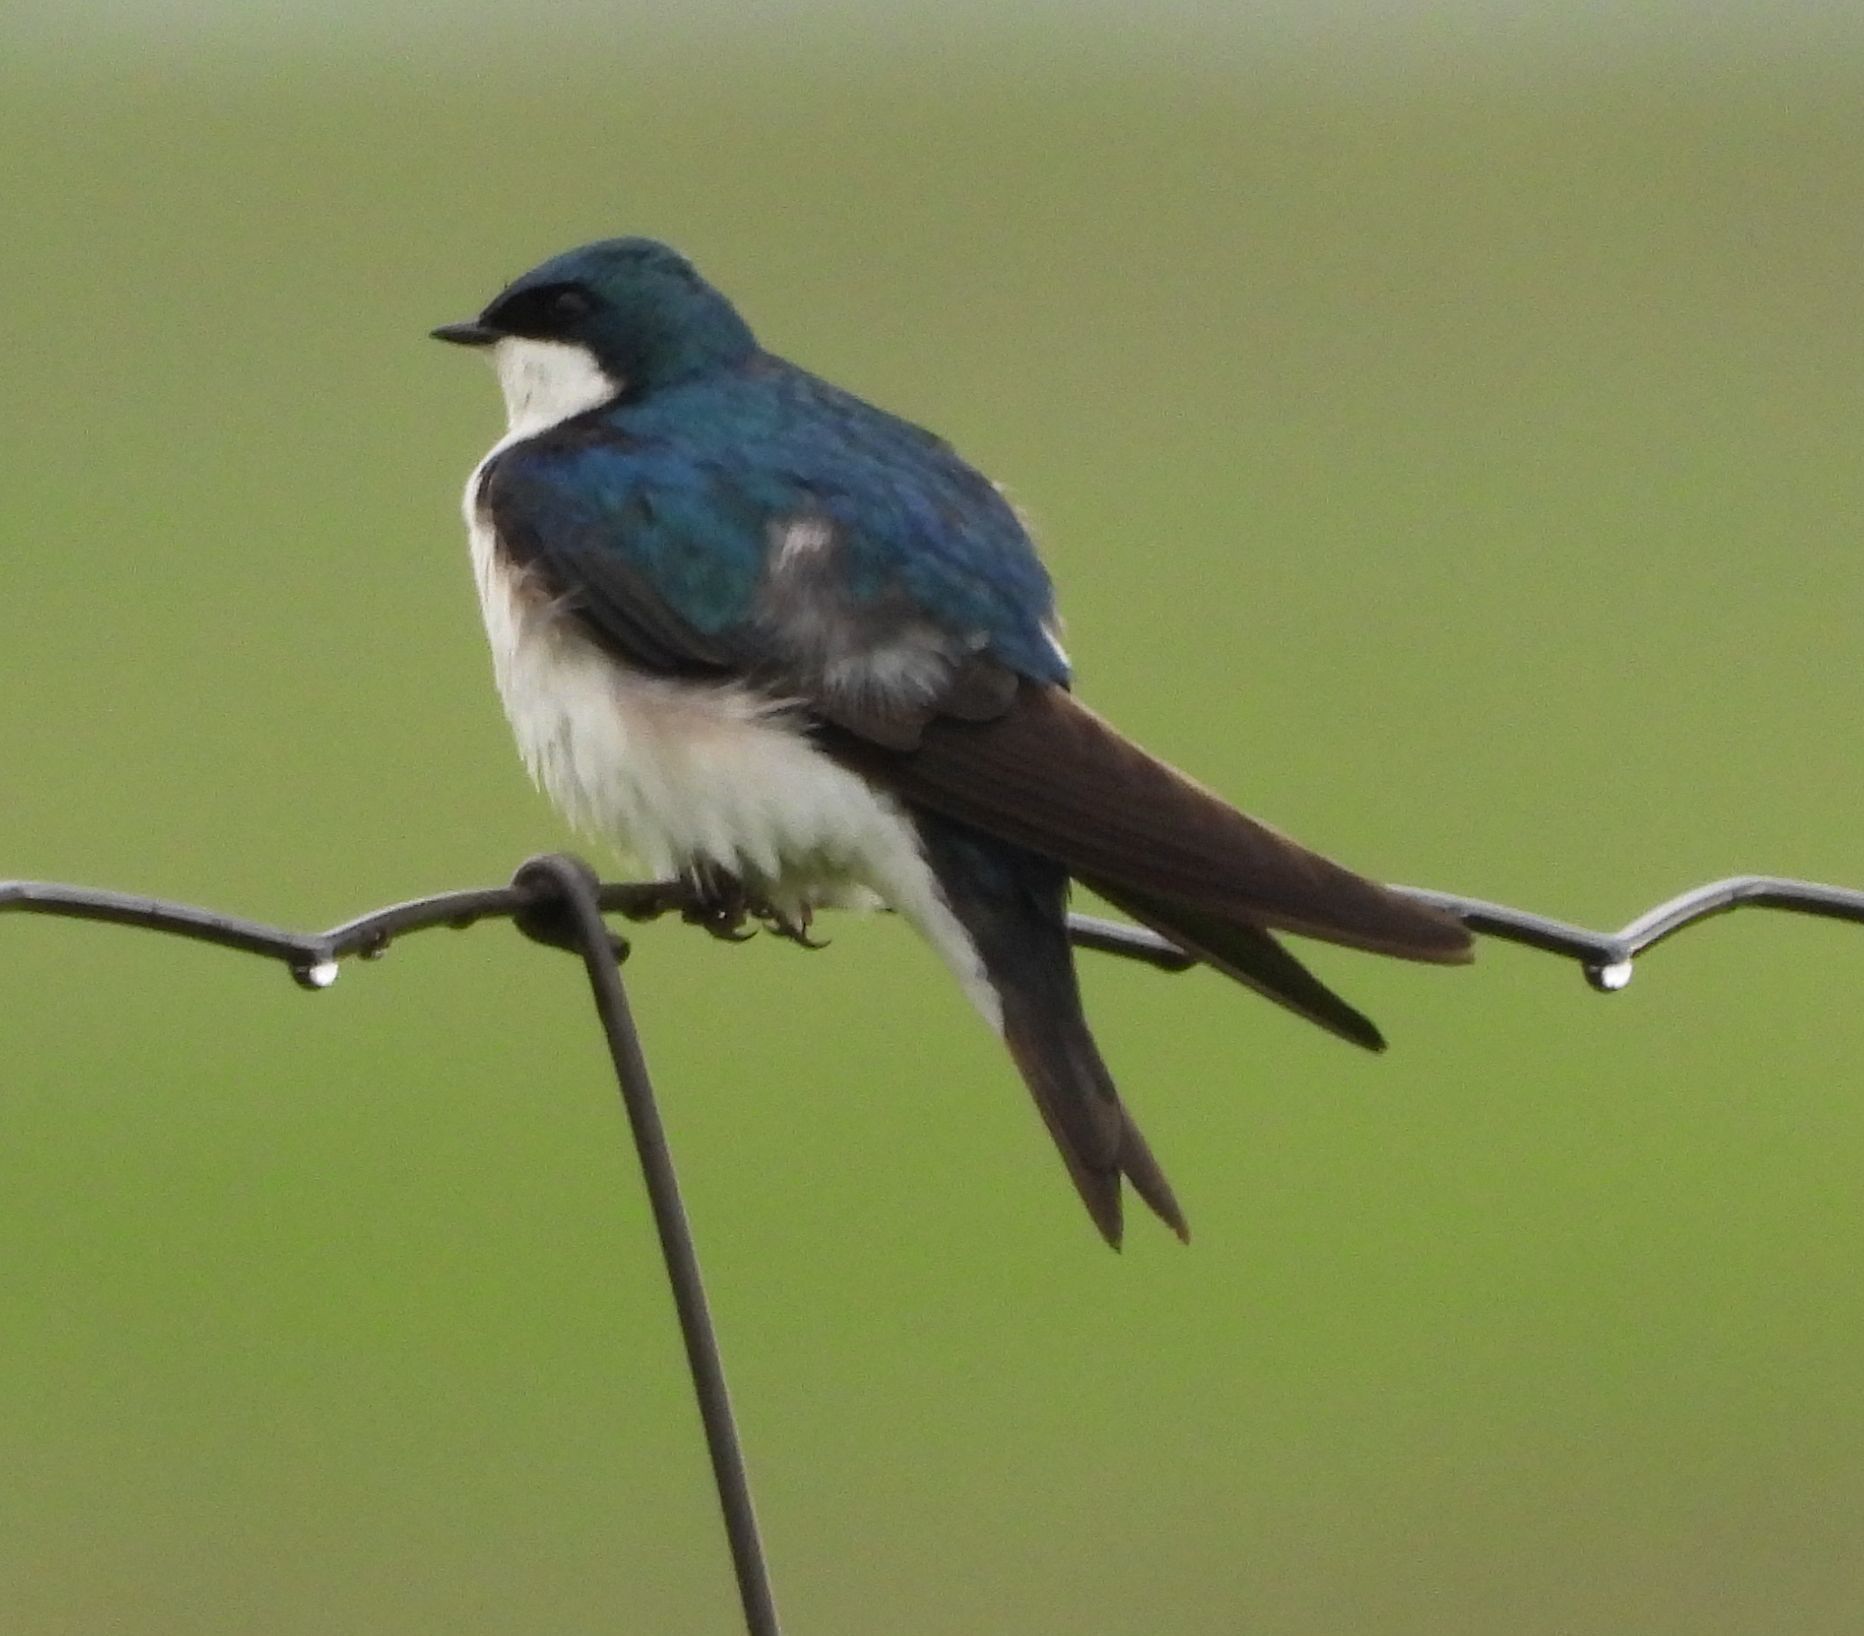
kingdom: Animalia
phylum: Chordata
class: Aves
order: Passeriformes
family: Hirundinidae
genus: Tachycineta
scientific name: Tachycineta bicolor
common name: Tree swallow
